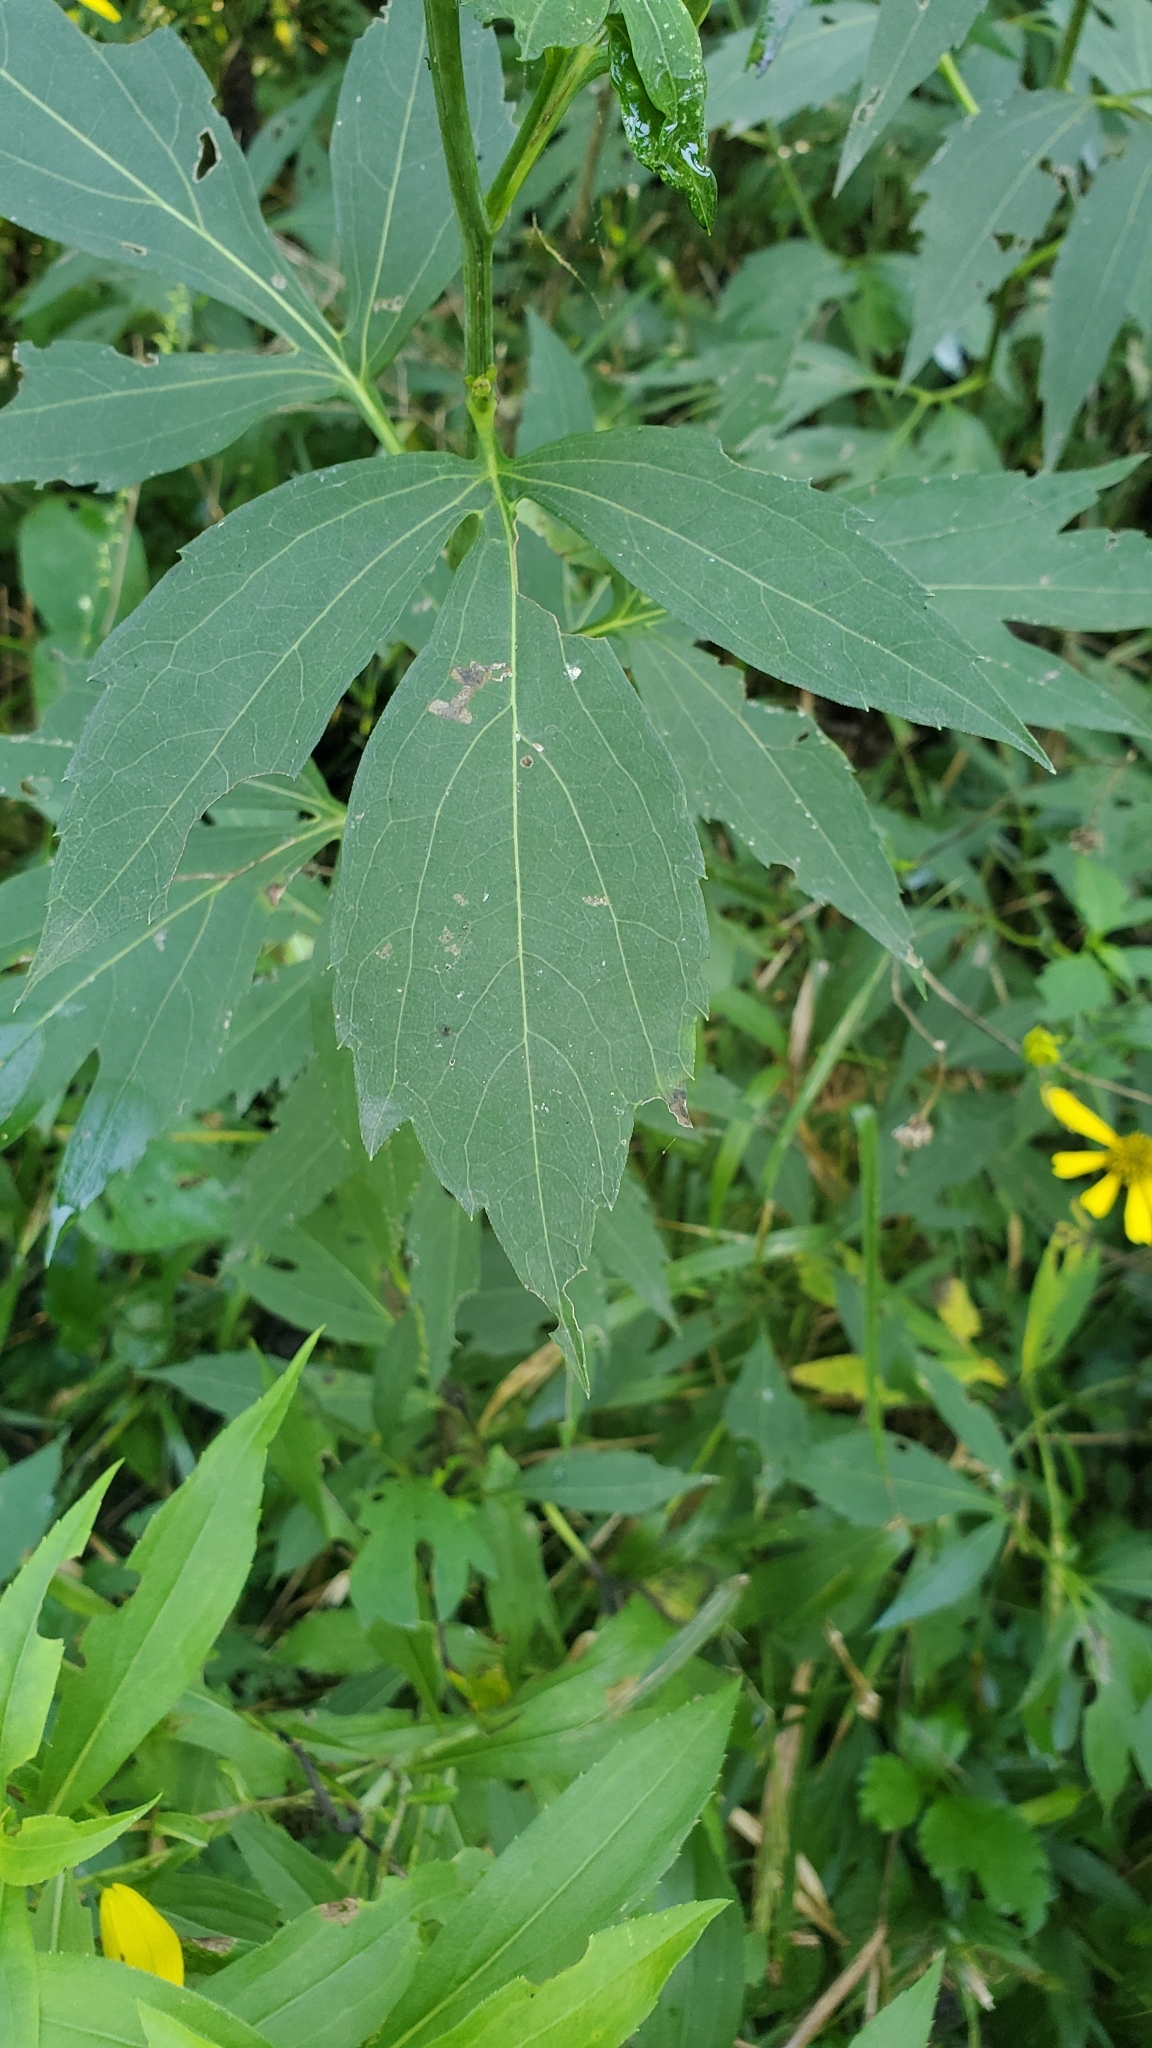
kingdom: Plantae
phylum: Tracheophyta
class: Magnoliopsida
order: Asterales
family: Asteraceae
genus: Rudbeckia
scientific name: Rudbeckia laciniata
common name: Coneflower
